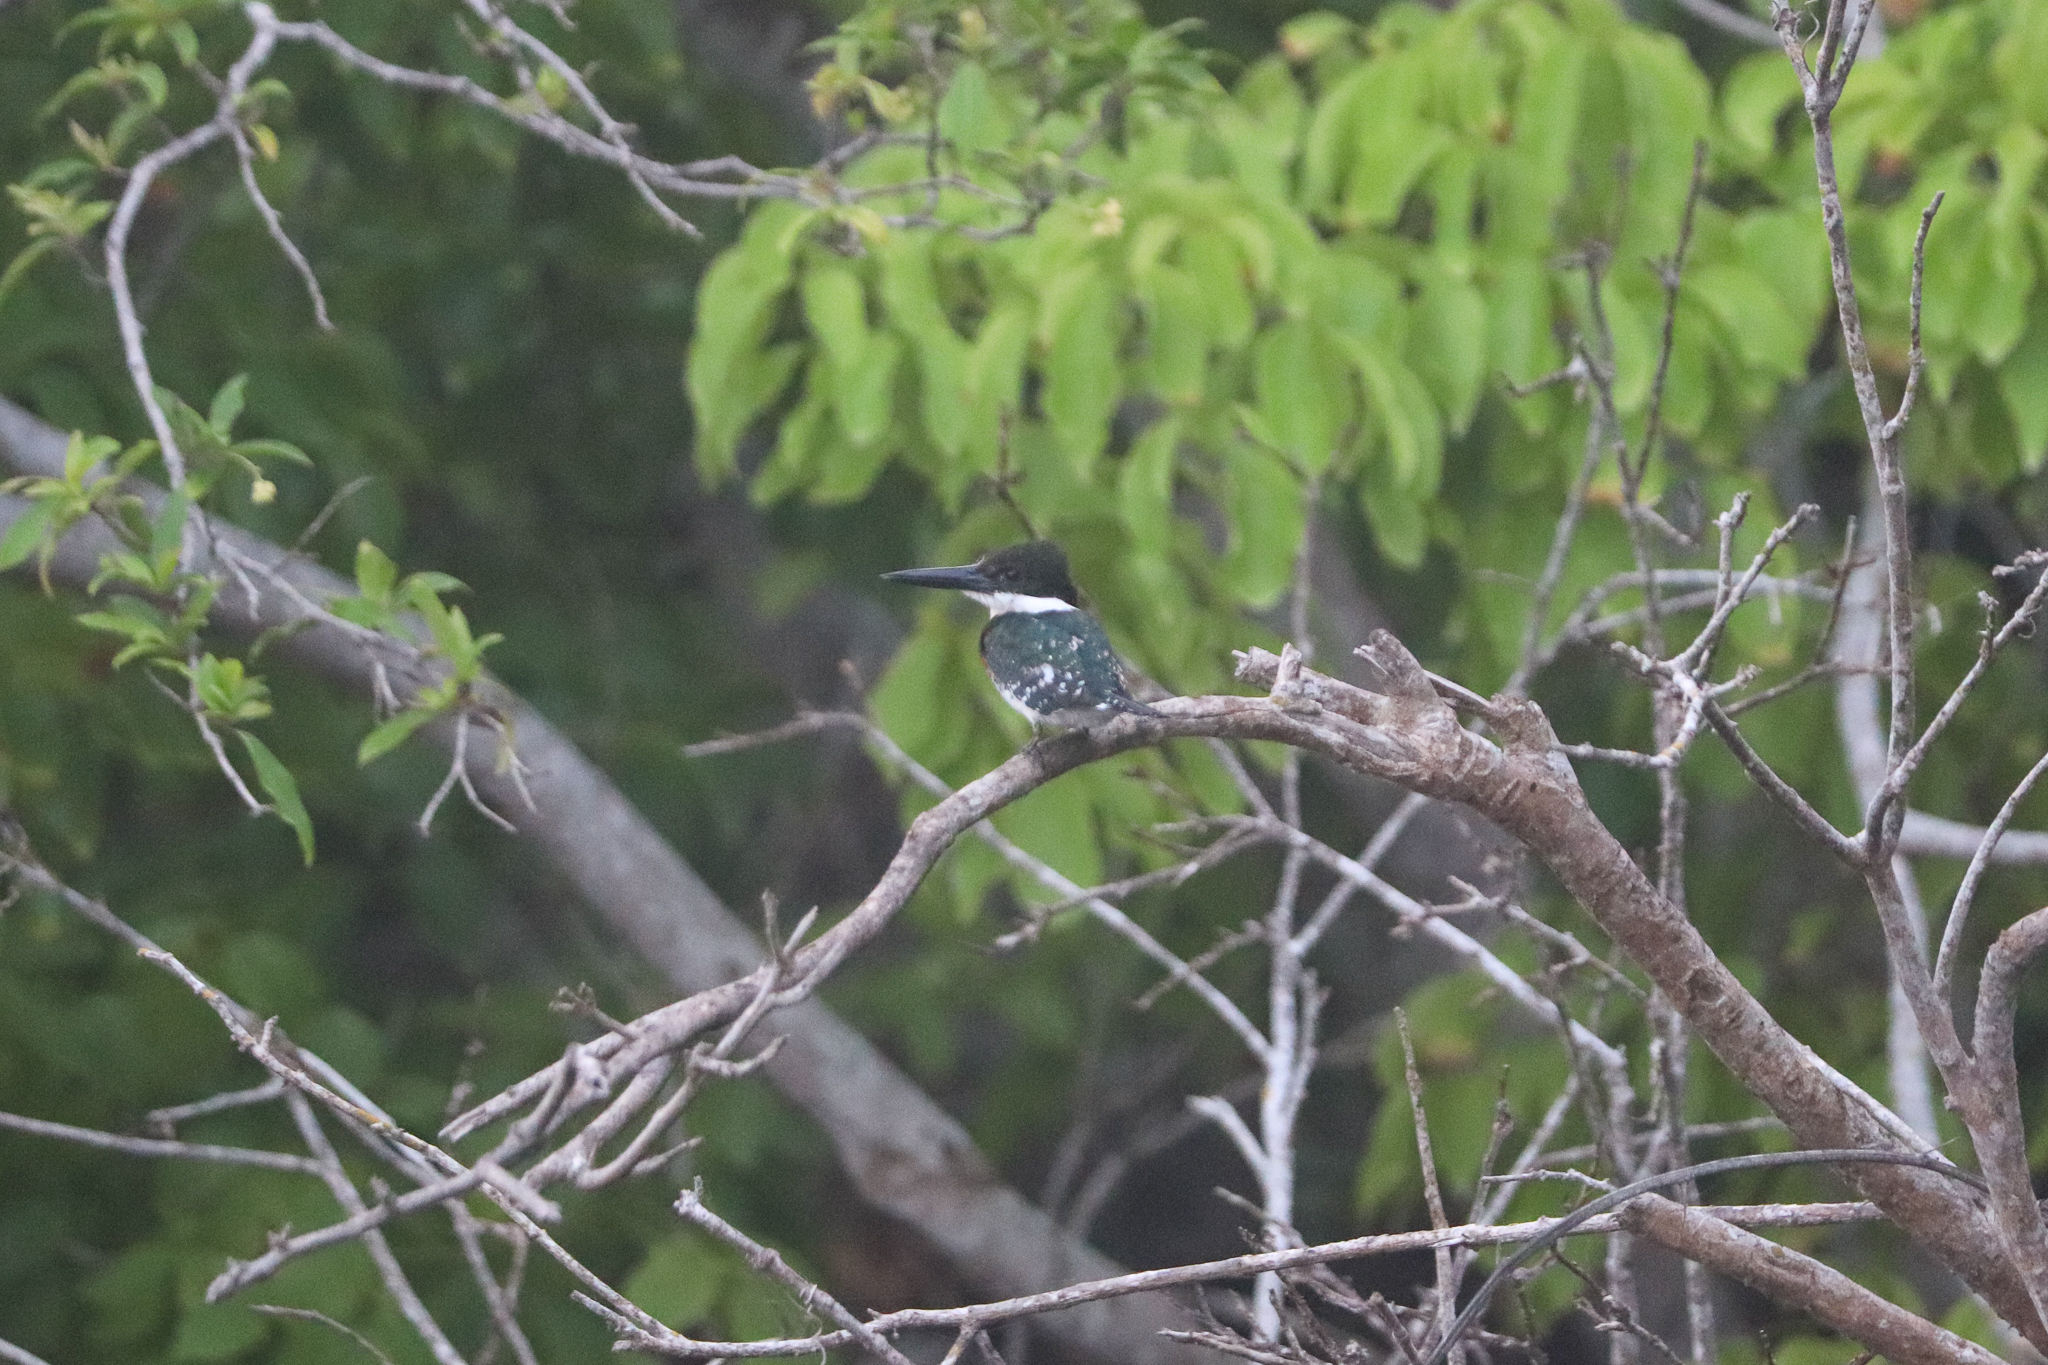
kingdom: Animalia
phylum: Chordata
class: Aves
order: Coraciiformes
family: Alcedinidae
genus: Chloroceryle
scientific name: Chloroceryle americana
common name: Green kingfisher
